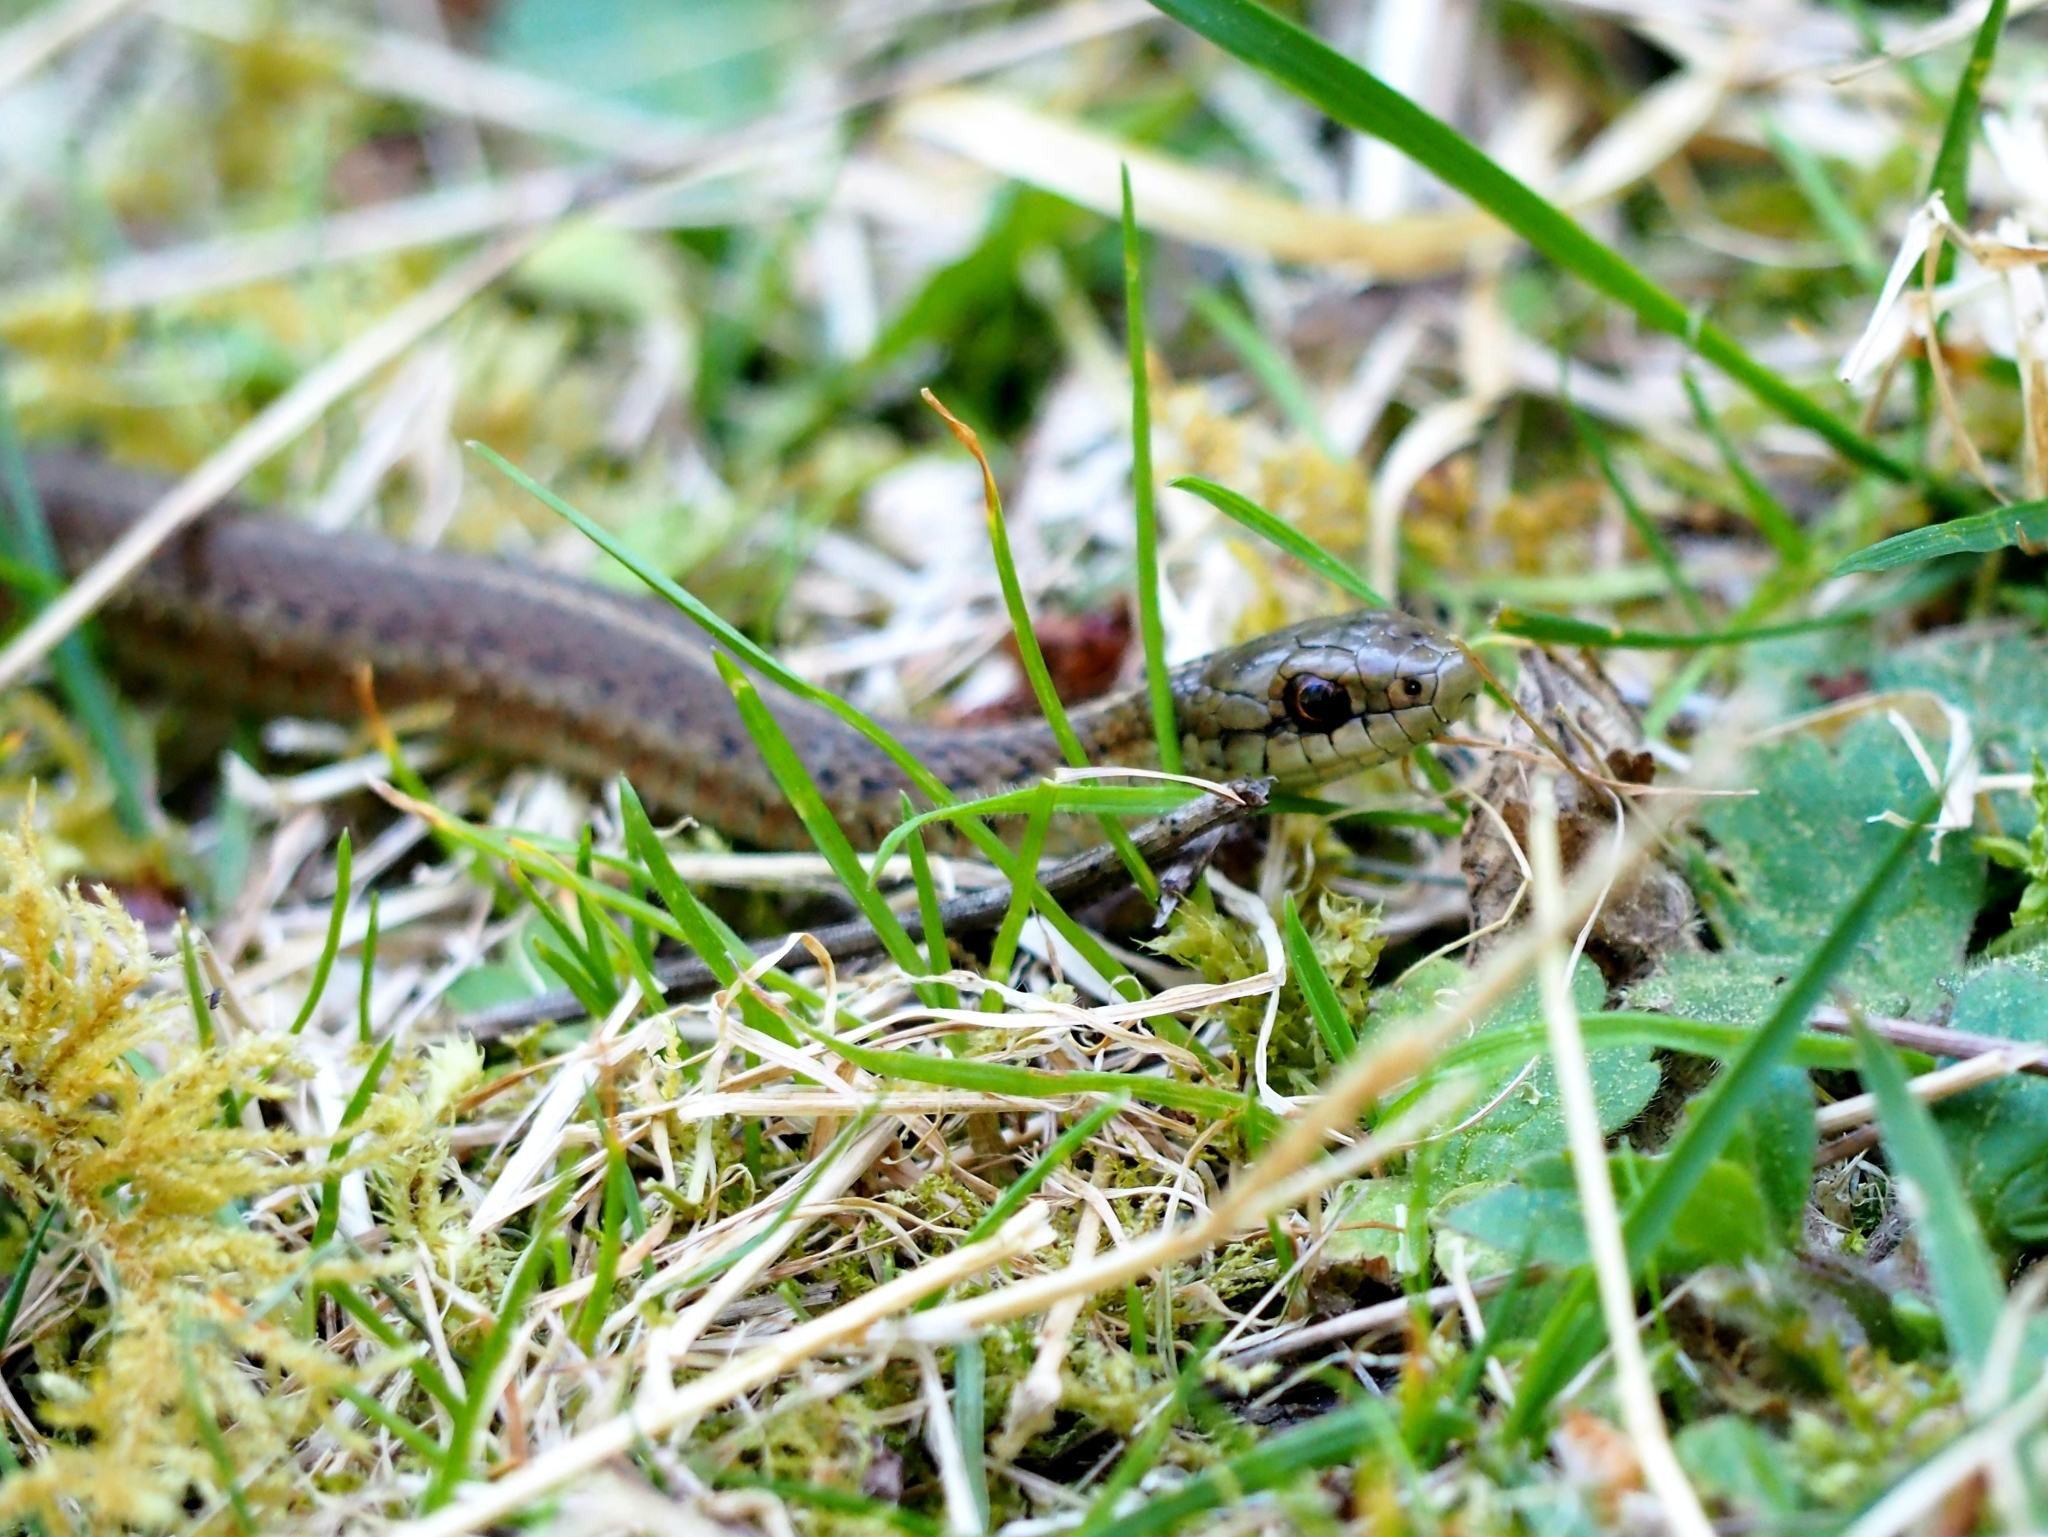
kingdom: Animalia
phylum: Chordata
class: Squamata
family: Colubridae
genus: Thamnophis
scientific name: Thamnophis ordinoides
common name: Northwestern garter snake
